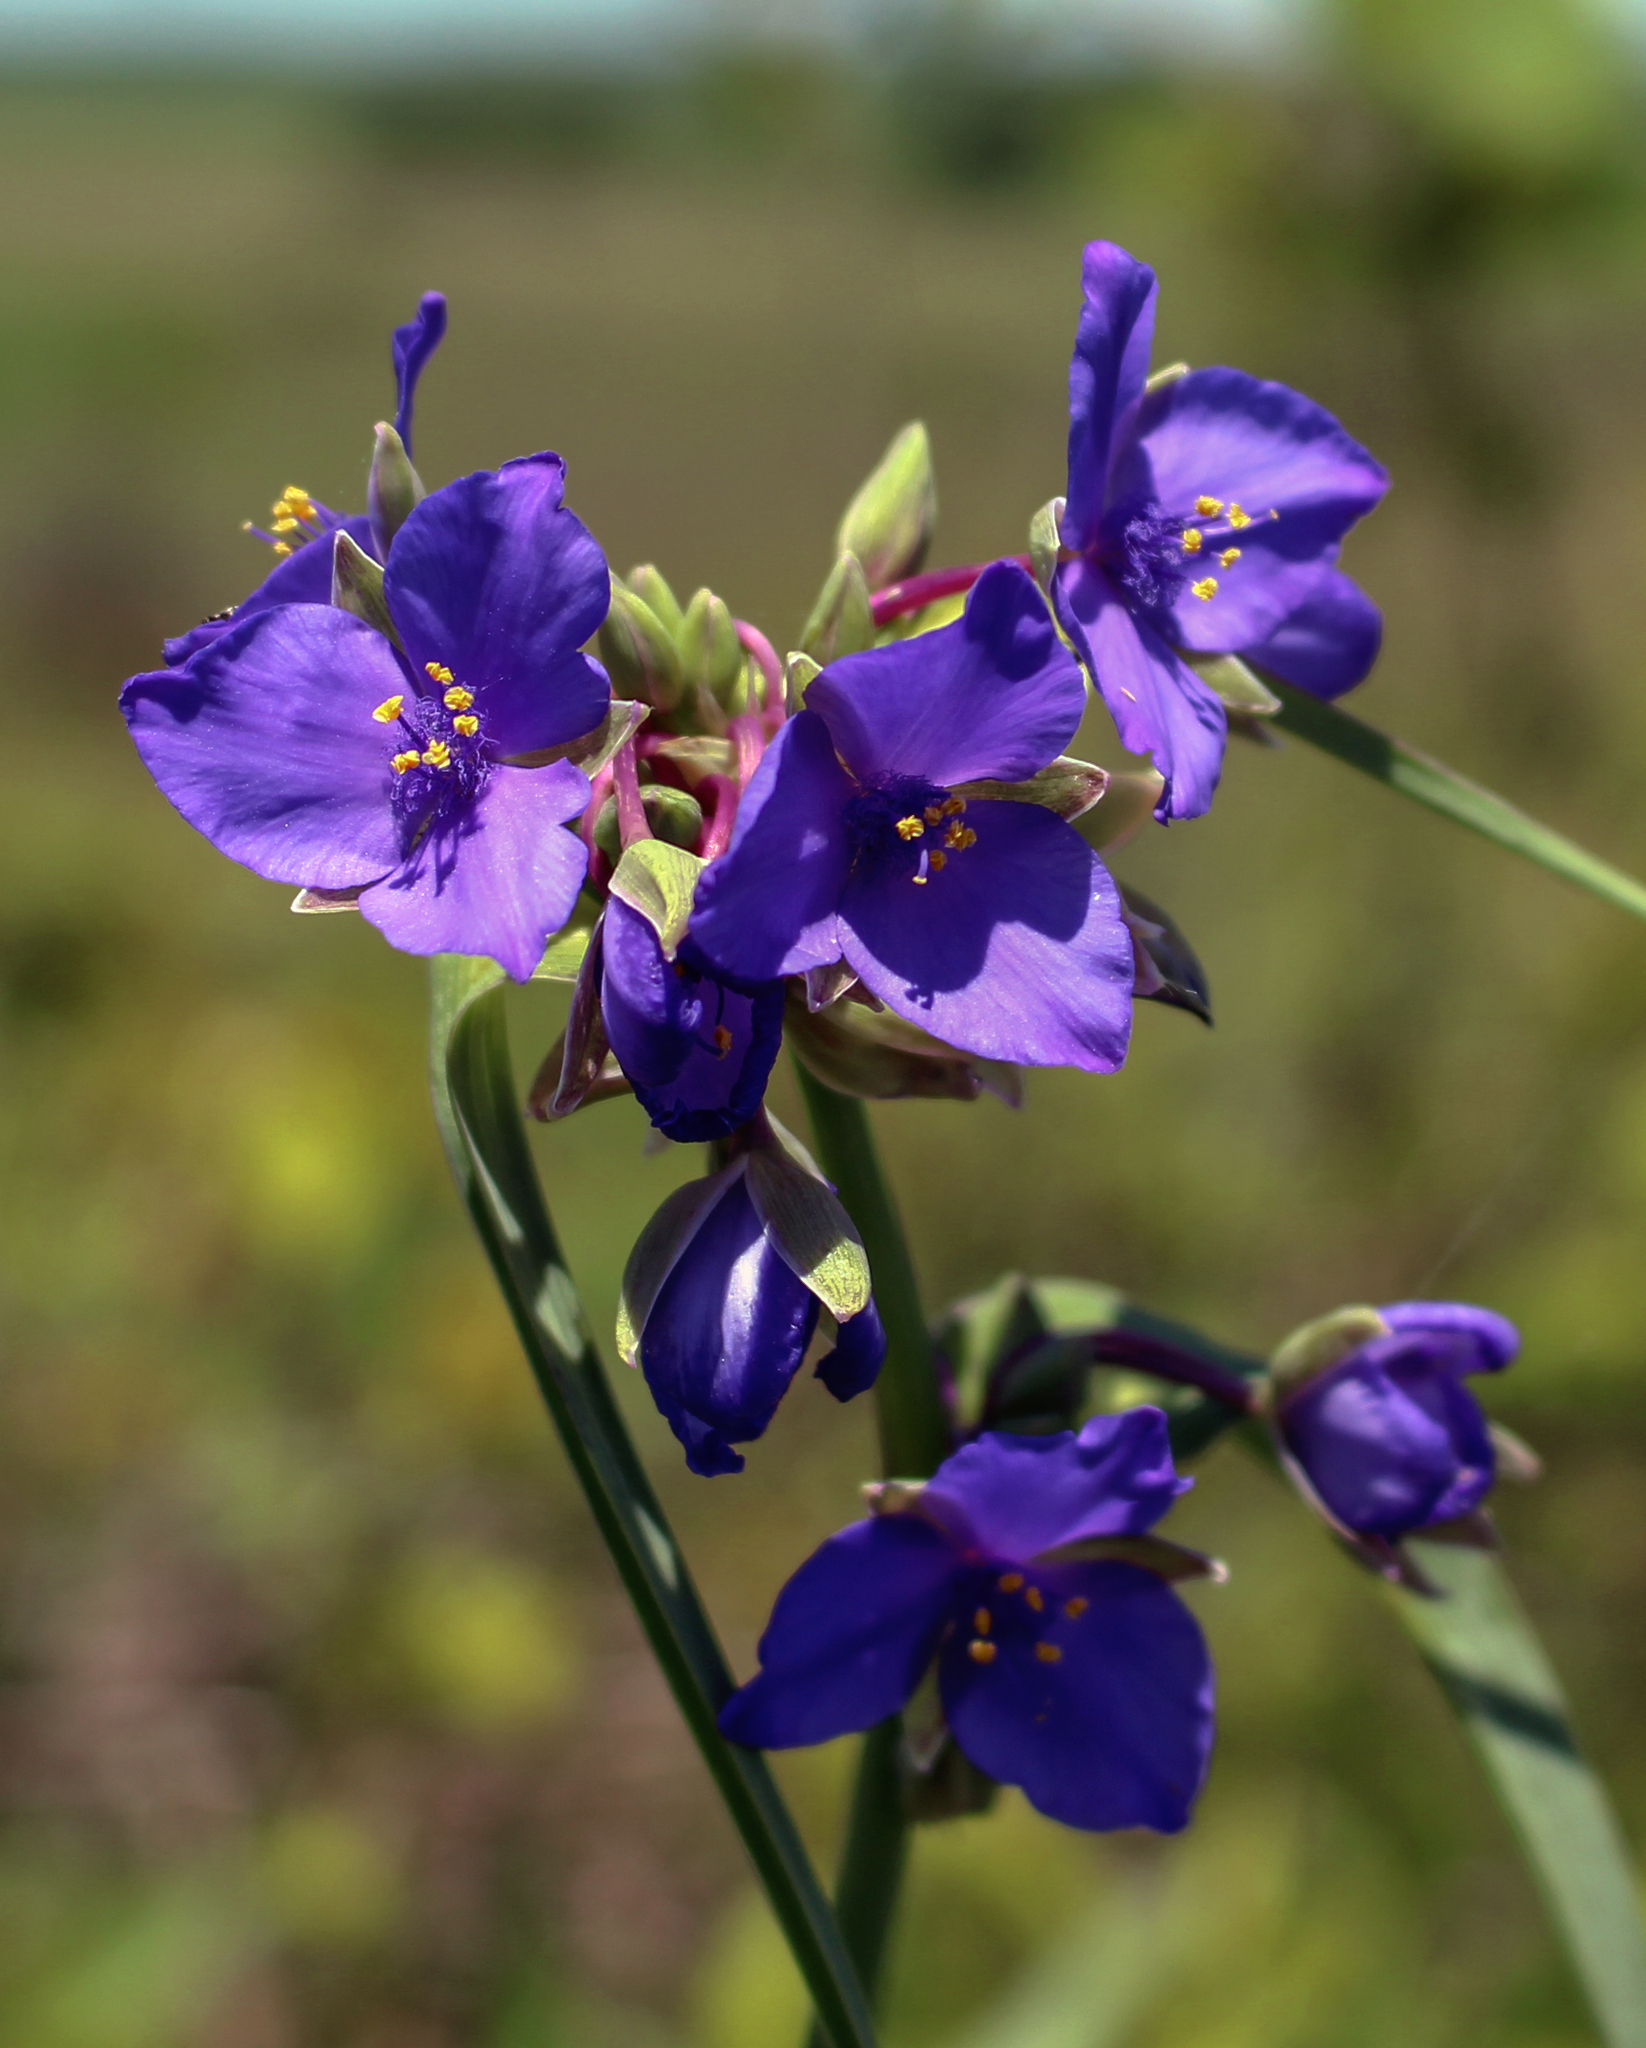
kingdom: Plantae
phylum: Tracheophyta
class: Liliopsida
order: Commelinales
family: Commelinaceae
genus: Tradescantia
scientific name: Tradescantia ohiensis
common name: Ohio spiderwort
